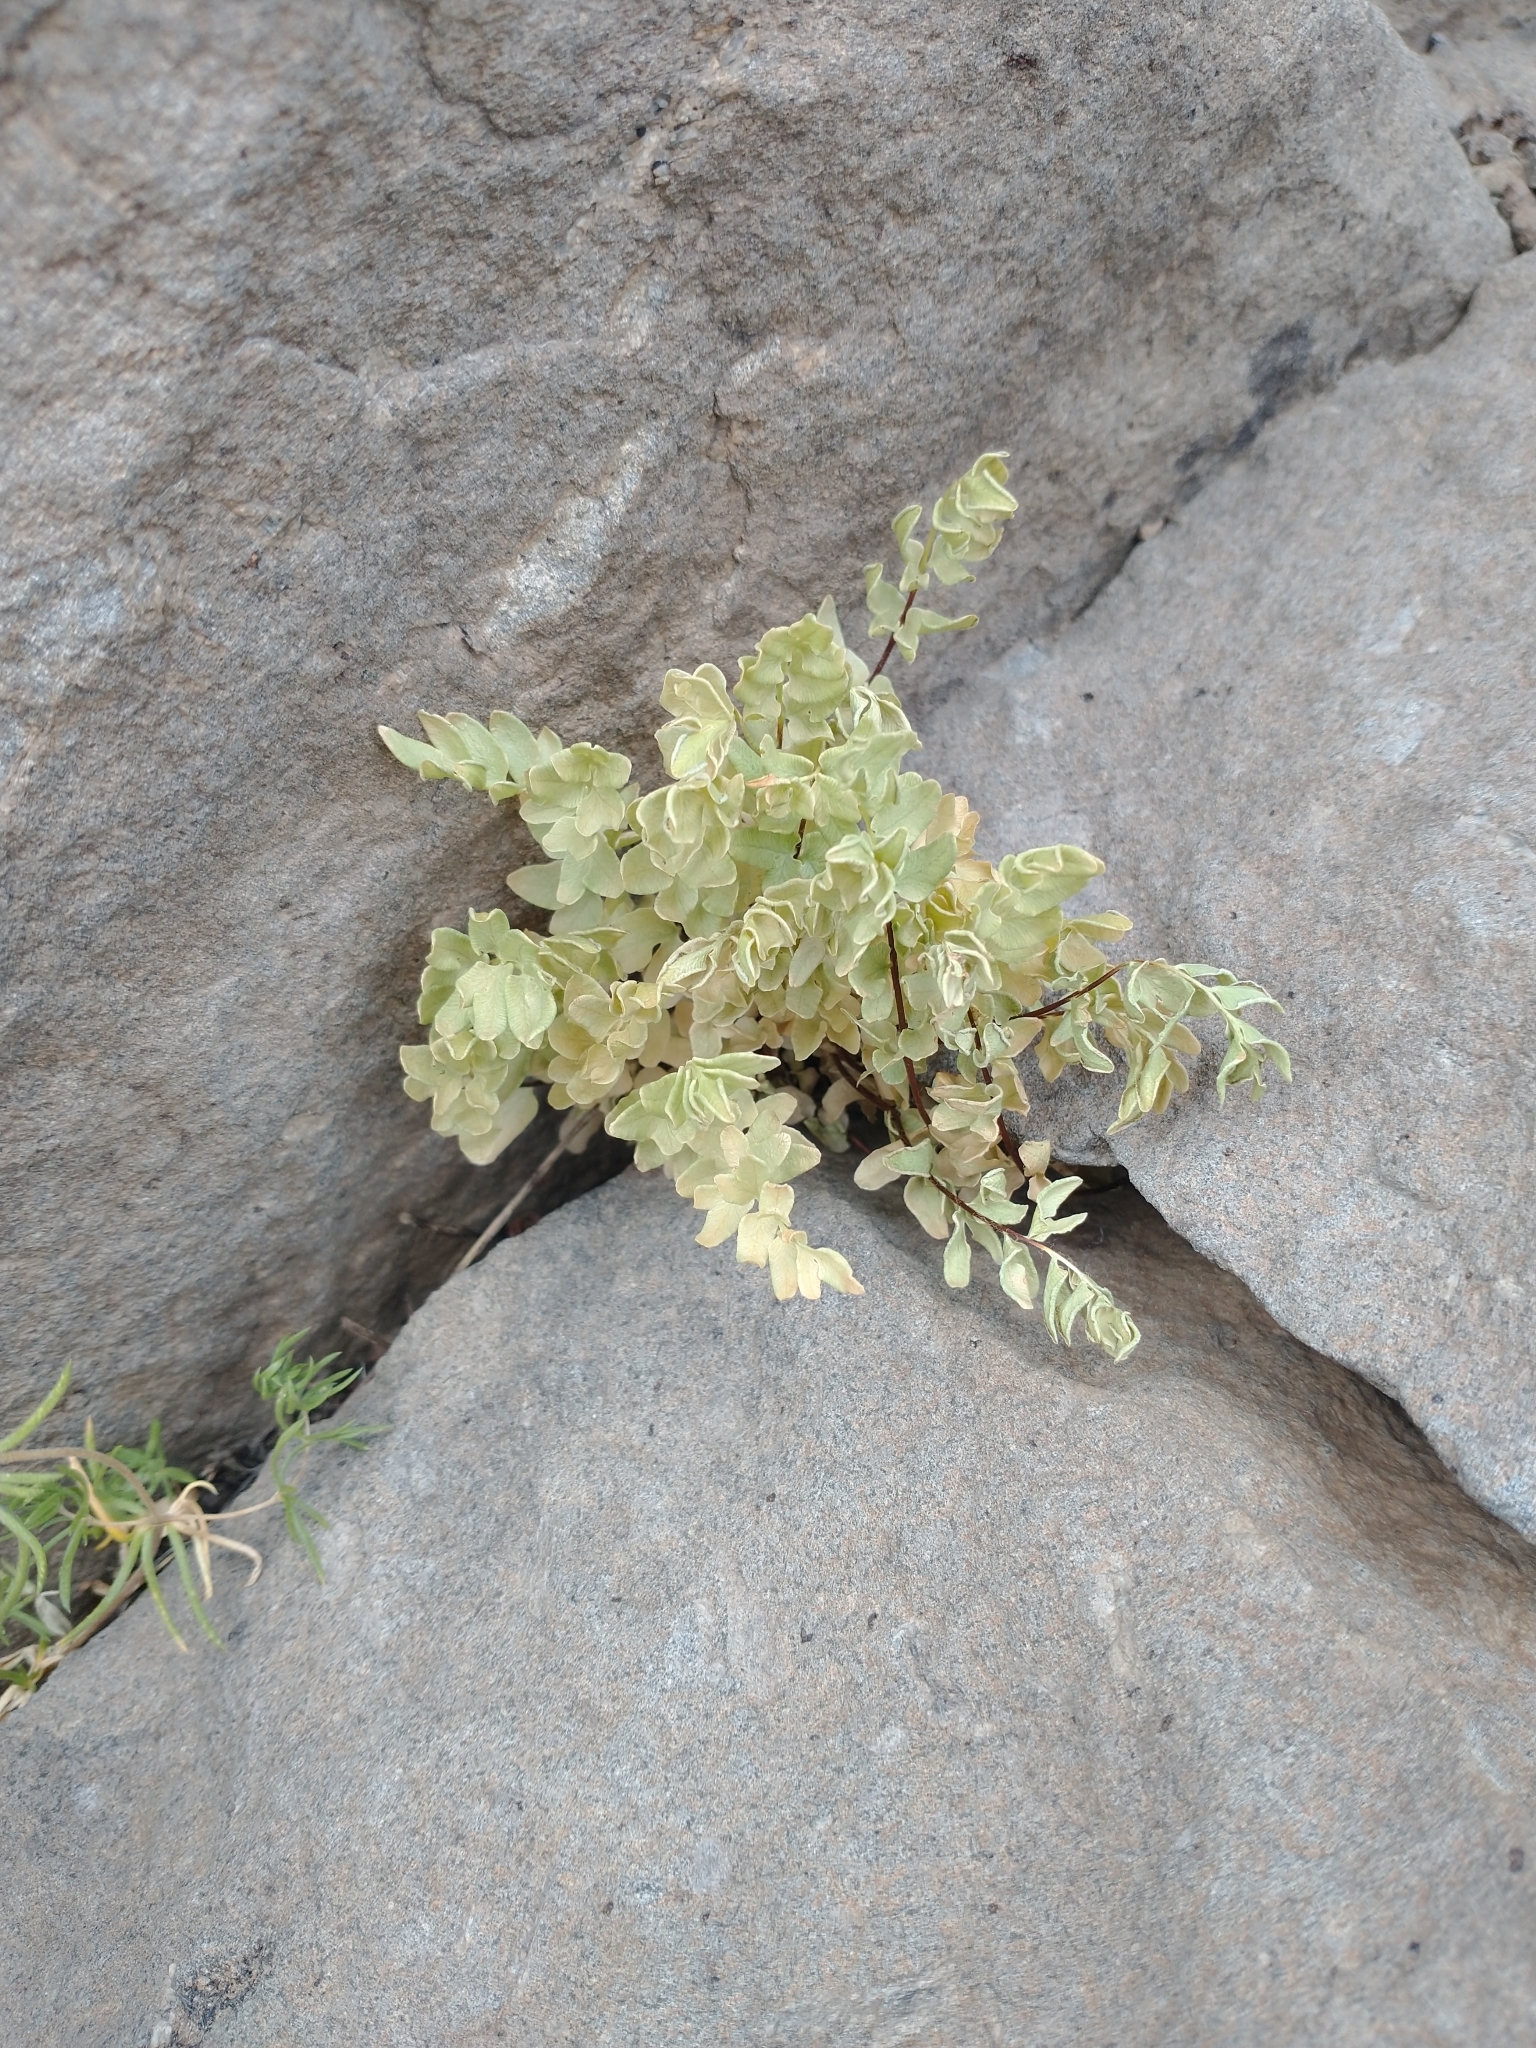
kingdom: Plantae
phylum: Tracheophyta
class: Polypodiopsida
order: Polypodiales
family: Pteridaceae
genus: Pellaea
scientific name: Pellaea breweri
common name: Brewer's cliffbrake
